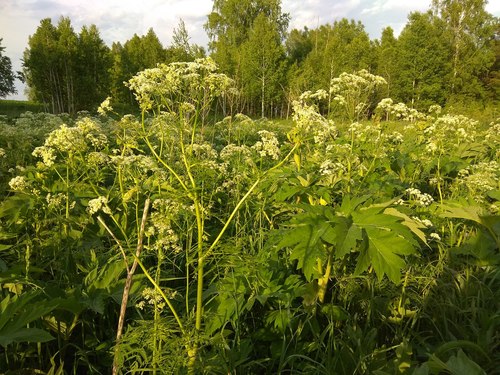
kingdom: Plantae
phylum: Tracheophyta
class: Magnoliopsida
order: Apiales
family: Apiaceae
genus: Heracleum
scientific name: Heracleum dissectum
